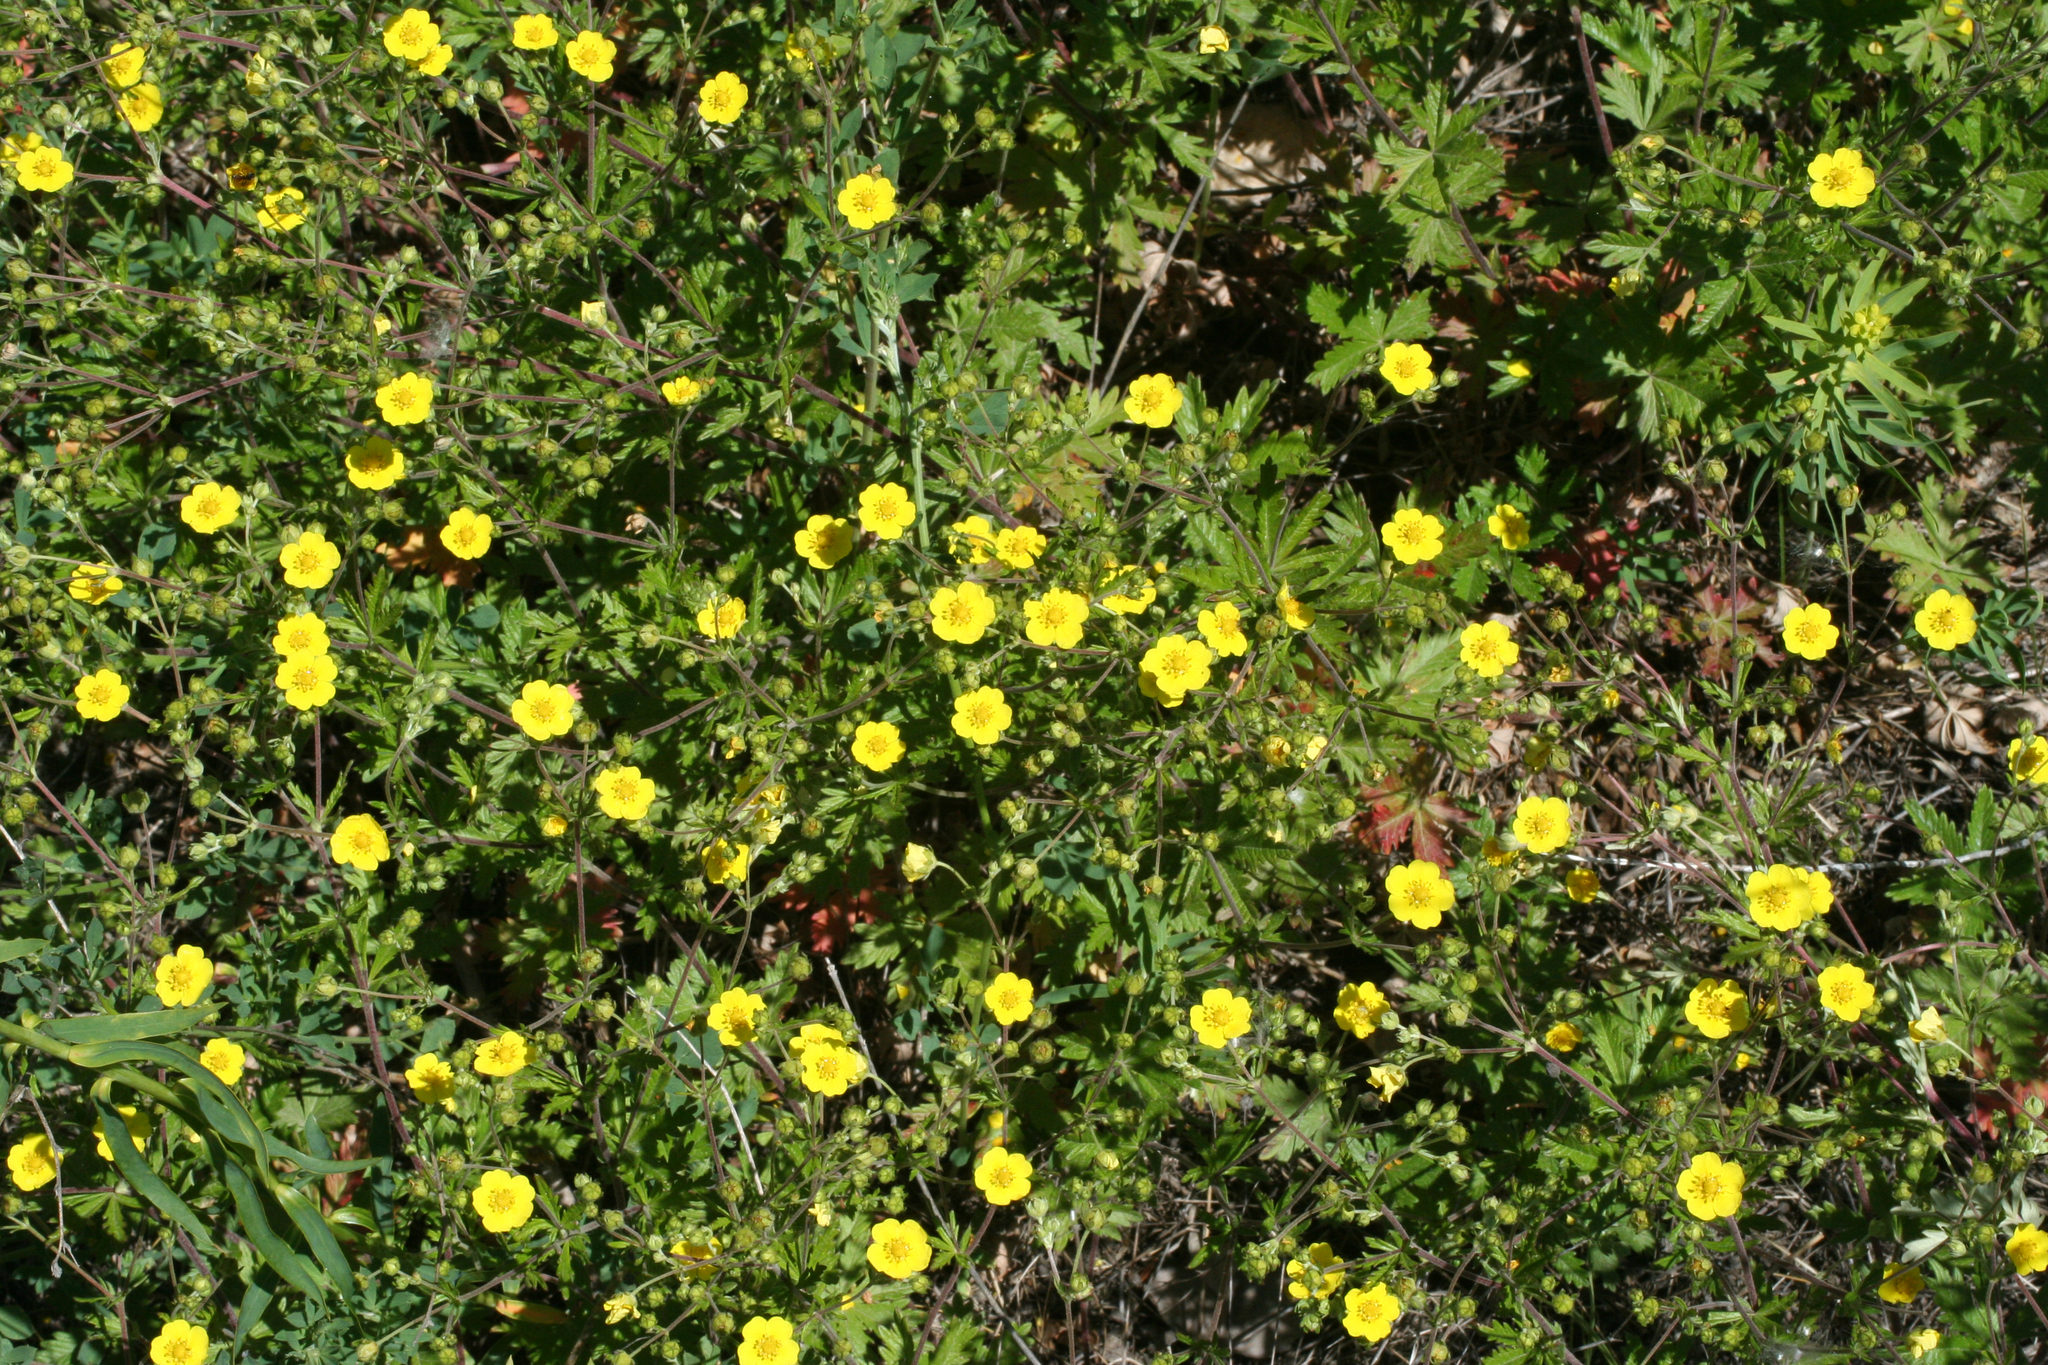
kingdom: Plantae
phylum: Tracheophyta
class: Magnoliopsida
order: Rosales
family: Rosaceae
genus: Potentilla
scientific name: Potentilla argentea
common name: Hoary cinquefoil
